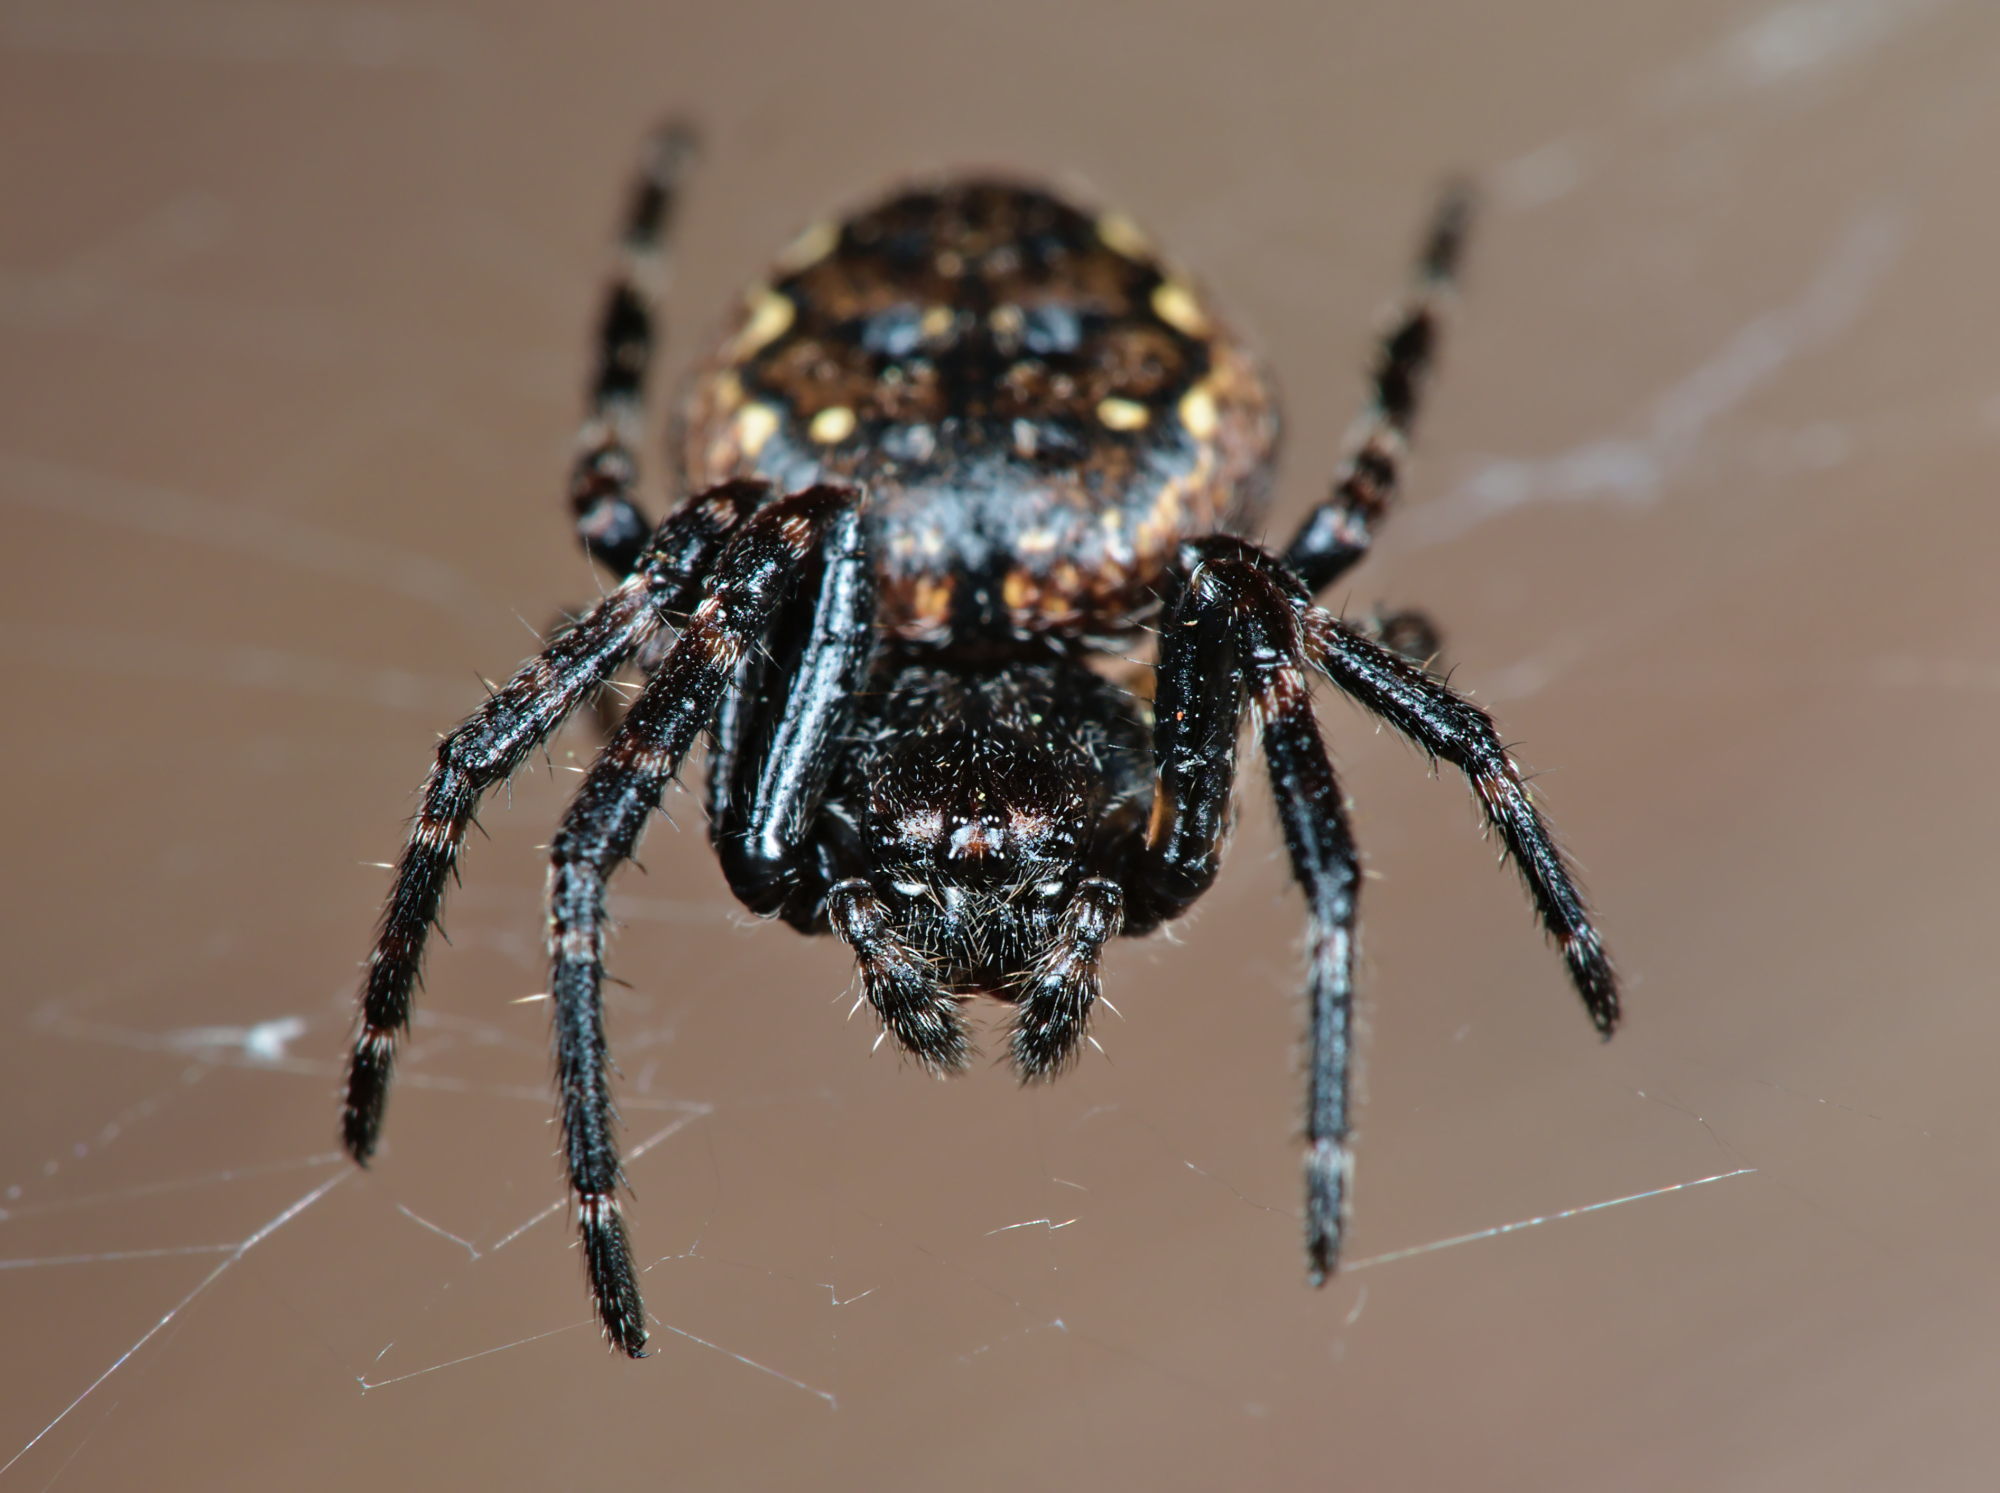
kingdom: Animalia
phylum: Arthropoda
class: Arachnida
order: Araneae
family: Araneidae
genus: Nuctenea
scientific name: Nuctenea umbratica
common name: Toad spider
